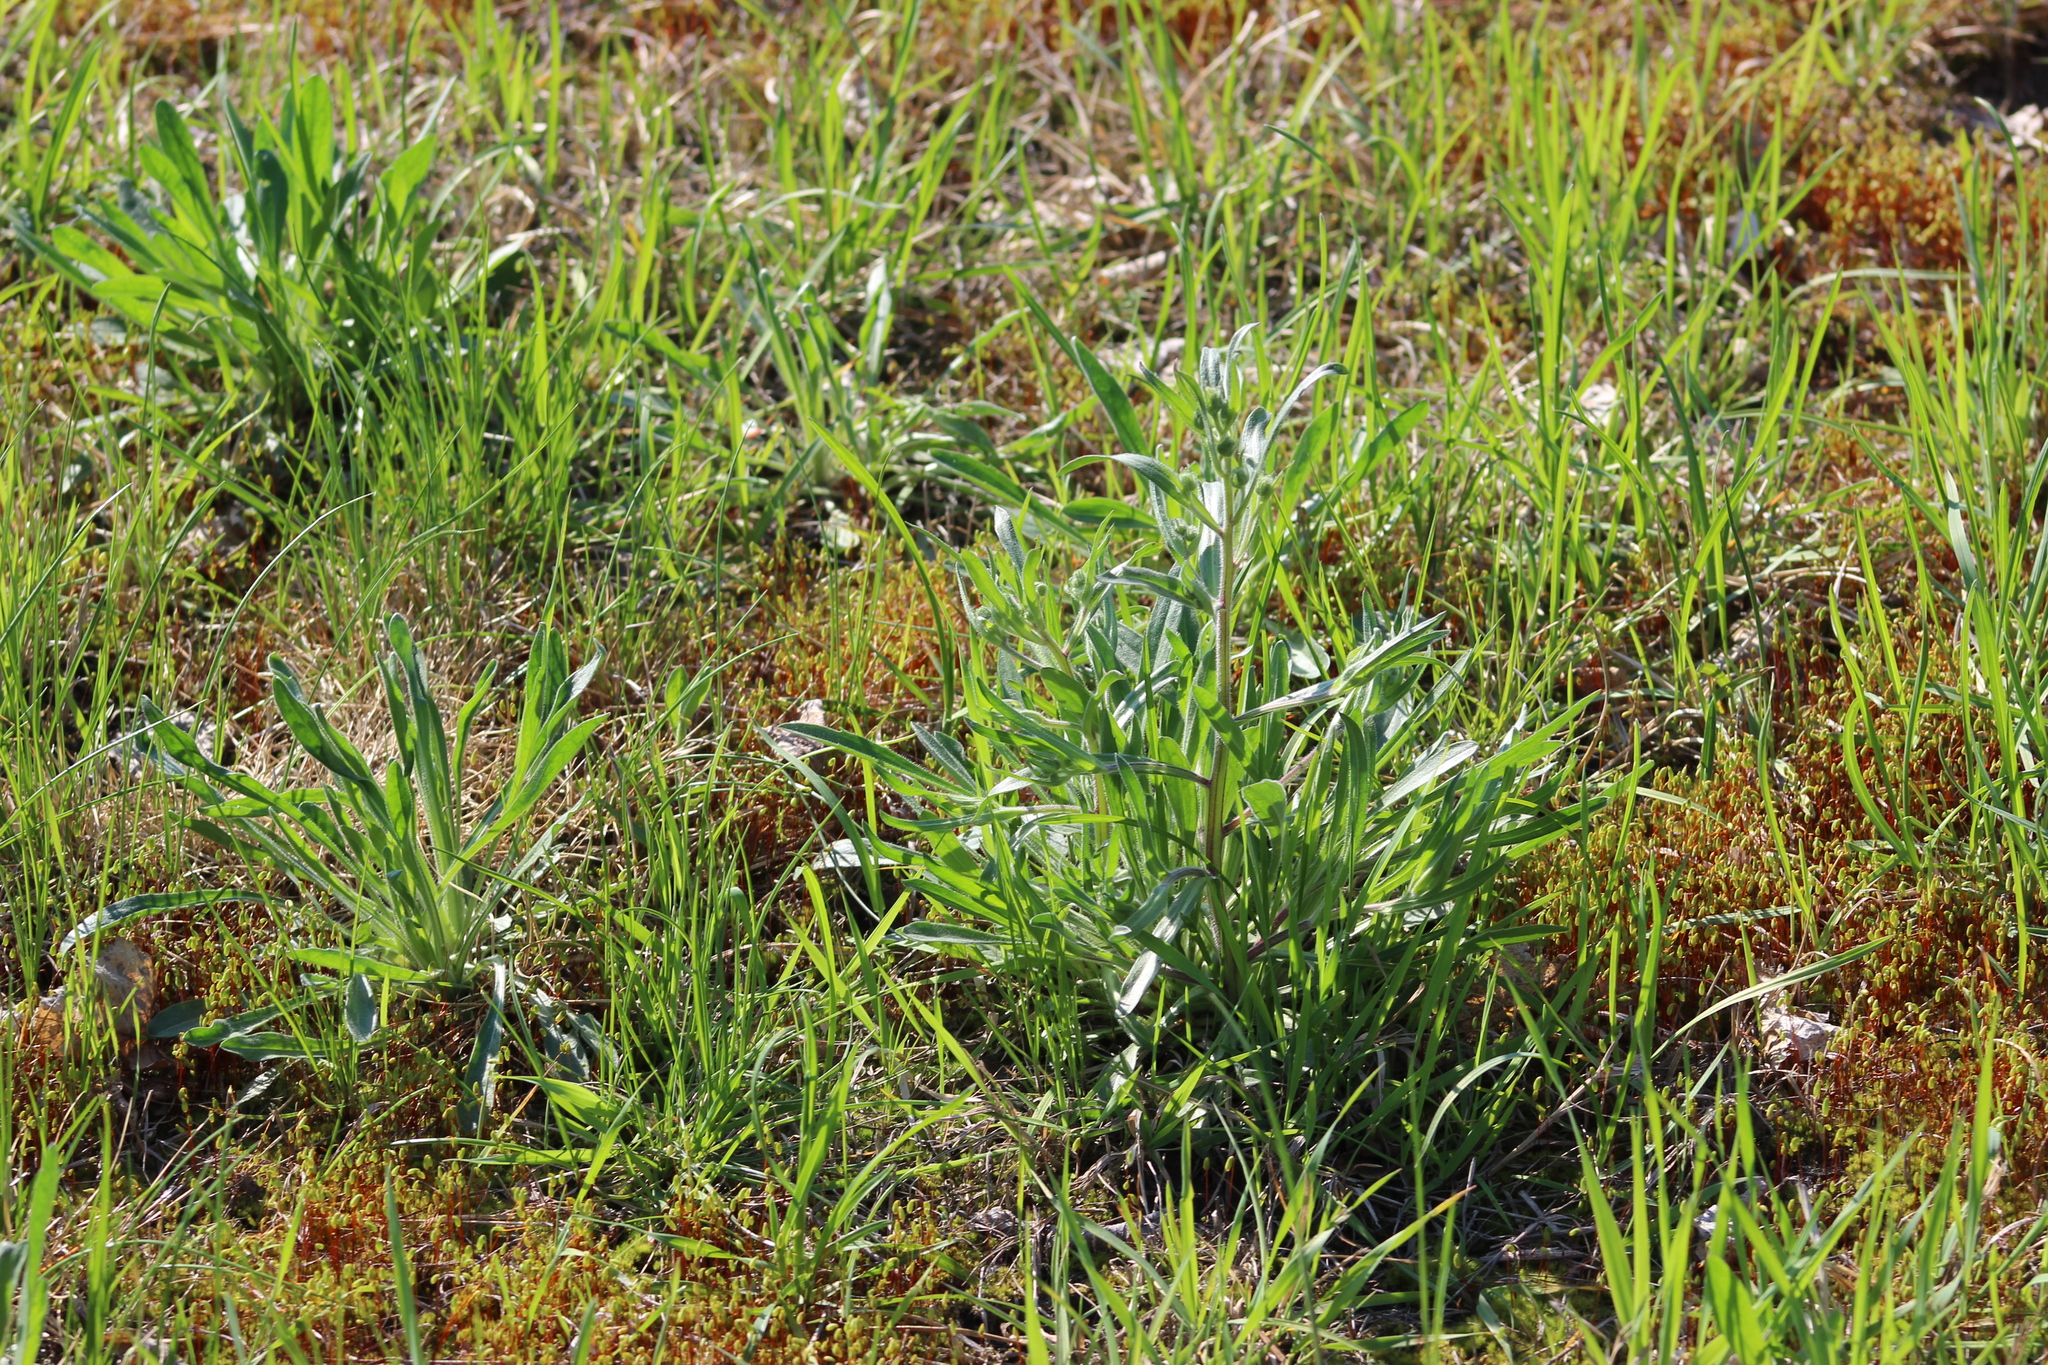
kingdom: Plantae
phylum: Tracheophyta
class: Magnoliopsida
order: Asterales
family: Asteraceae
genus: Erigeron
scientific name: Erigeron acris
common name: Blue fleabane
